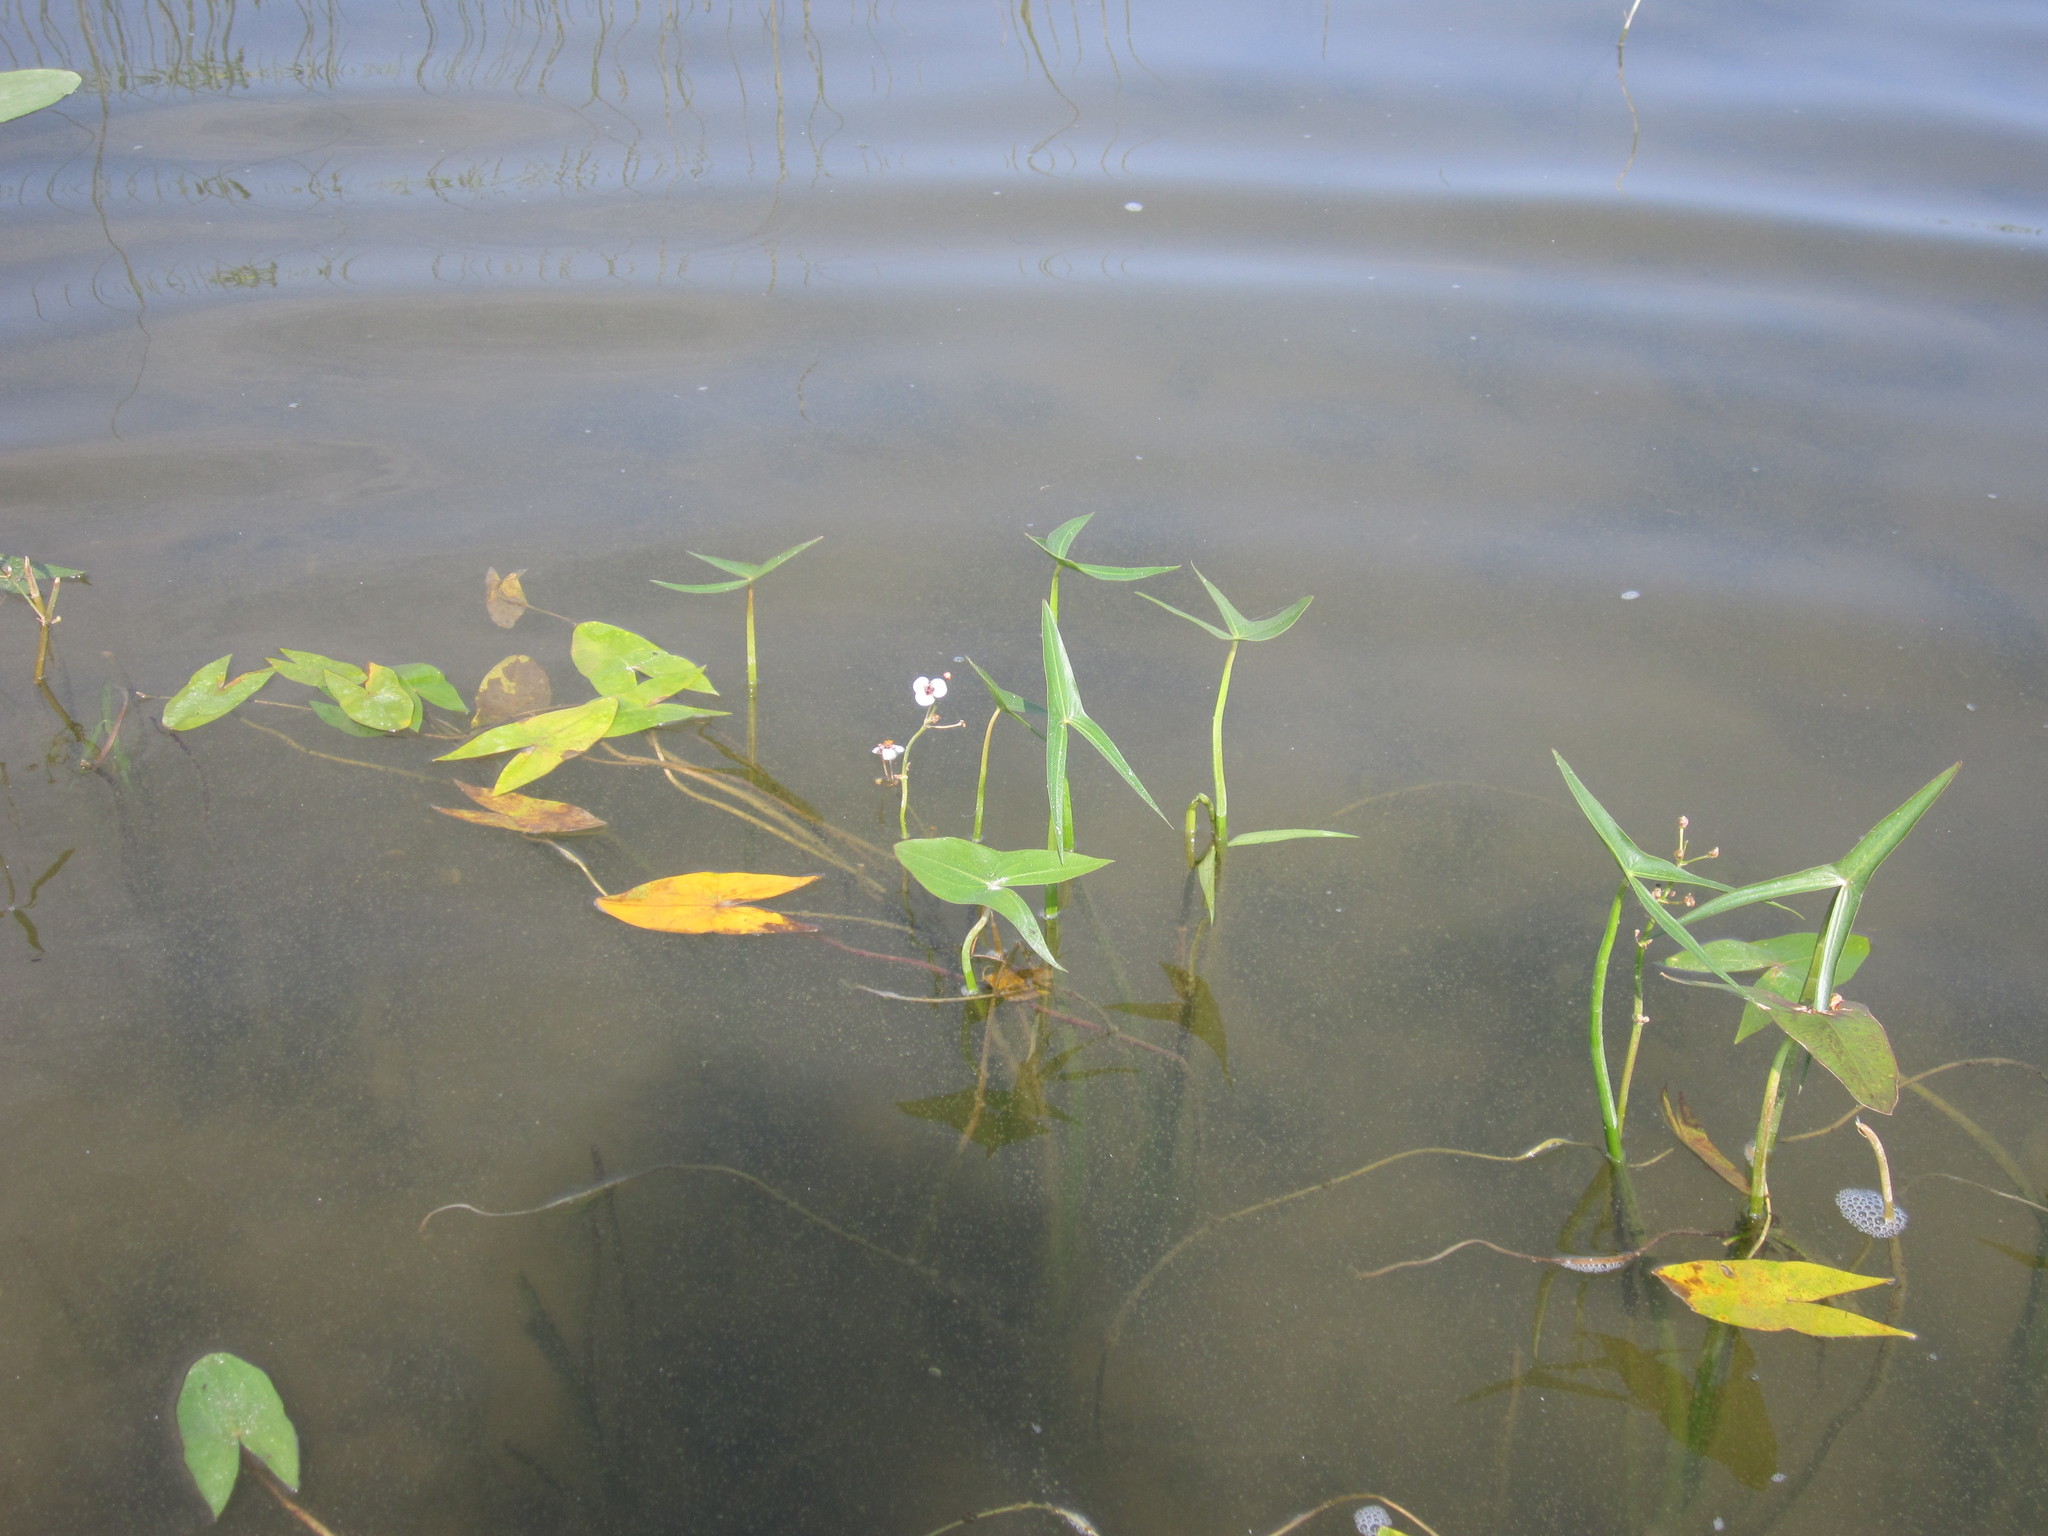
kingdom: Plantae
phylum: Tracheophyta
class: Liliopsida
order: Alismatales
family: Alismataceae
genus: Sagittaria
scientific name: Sagittaria sagittifolia
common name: Arrowhead
